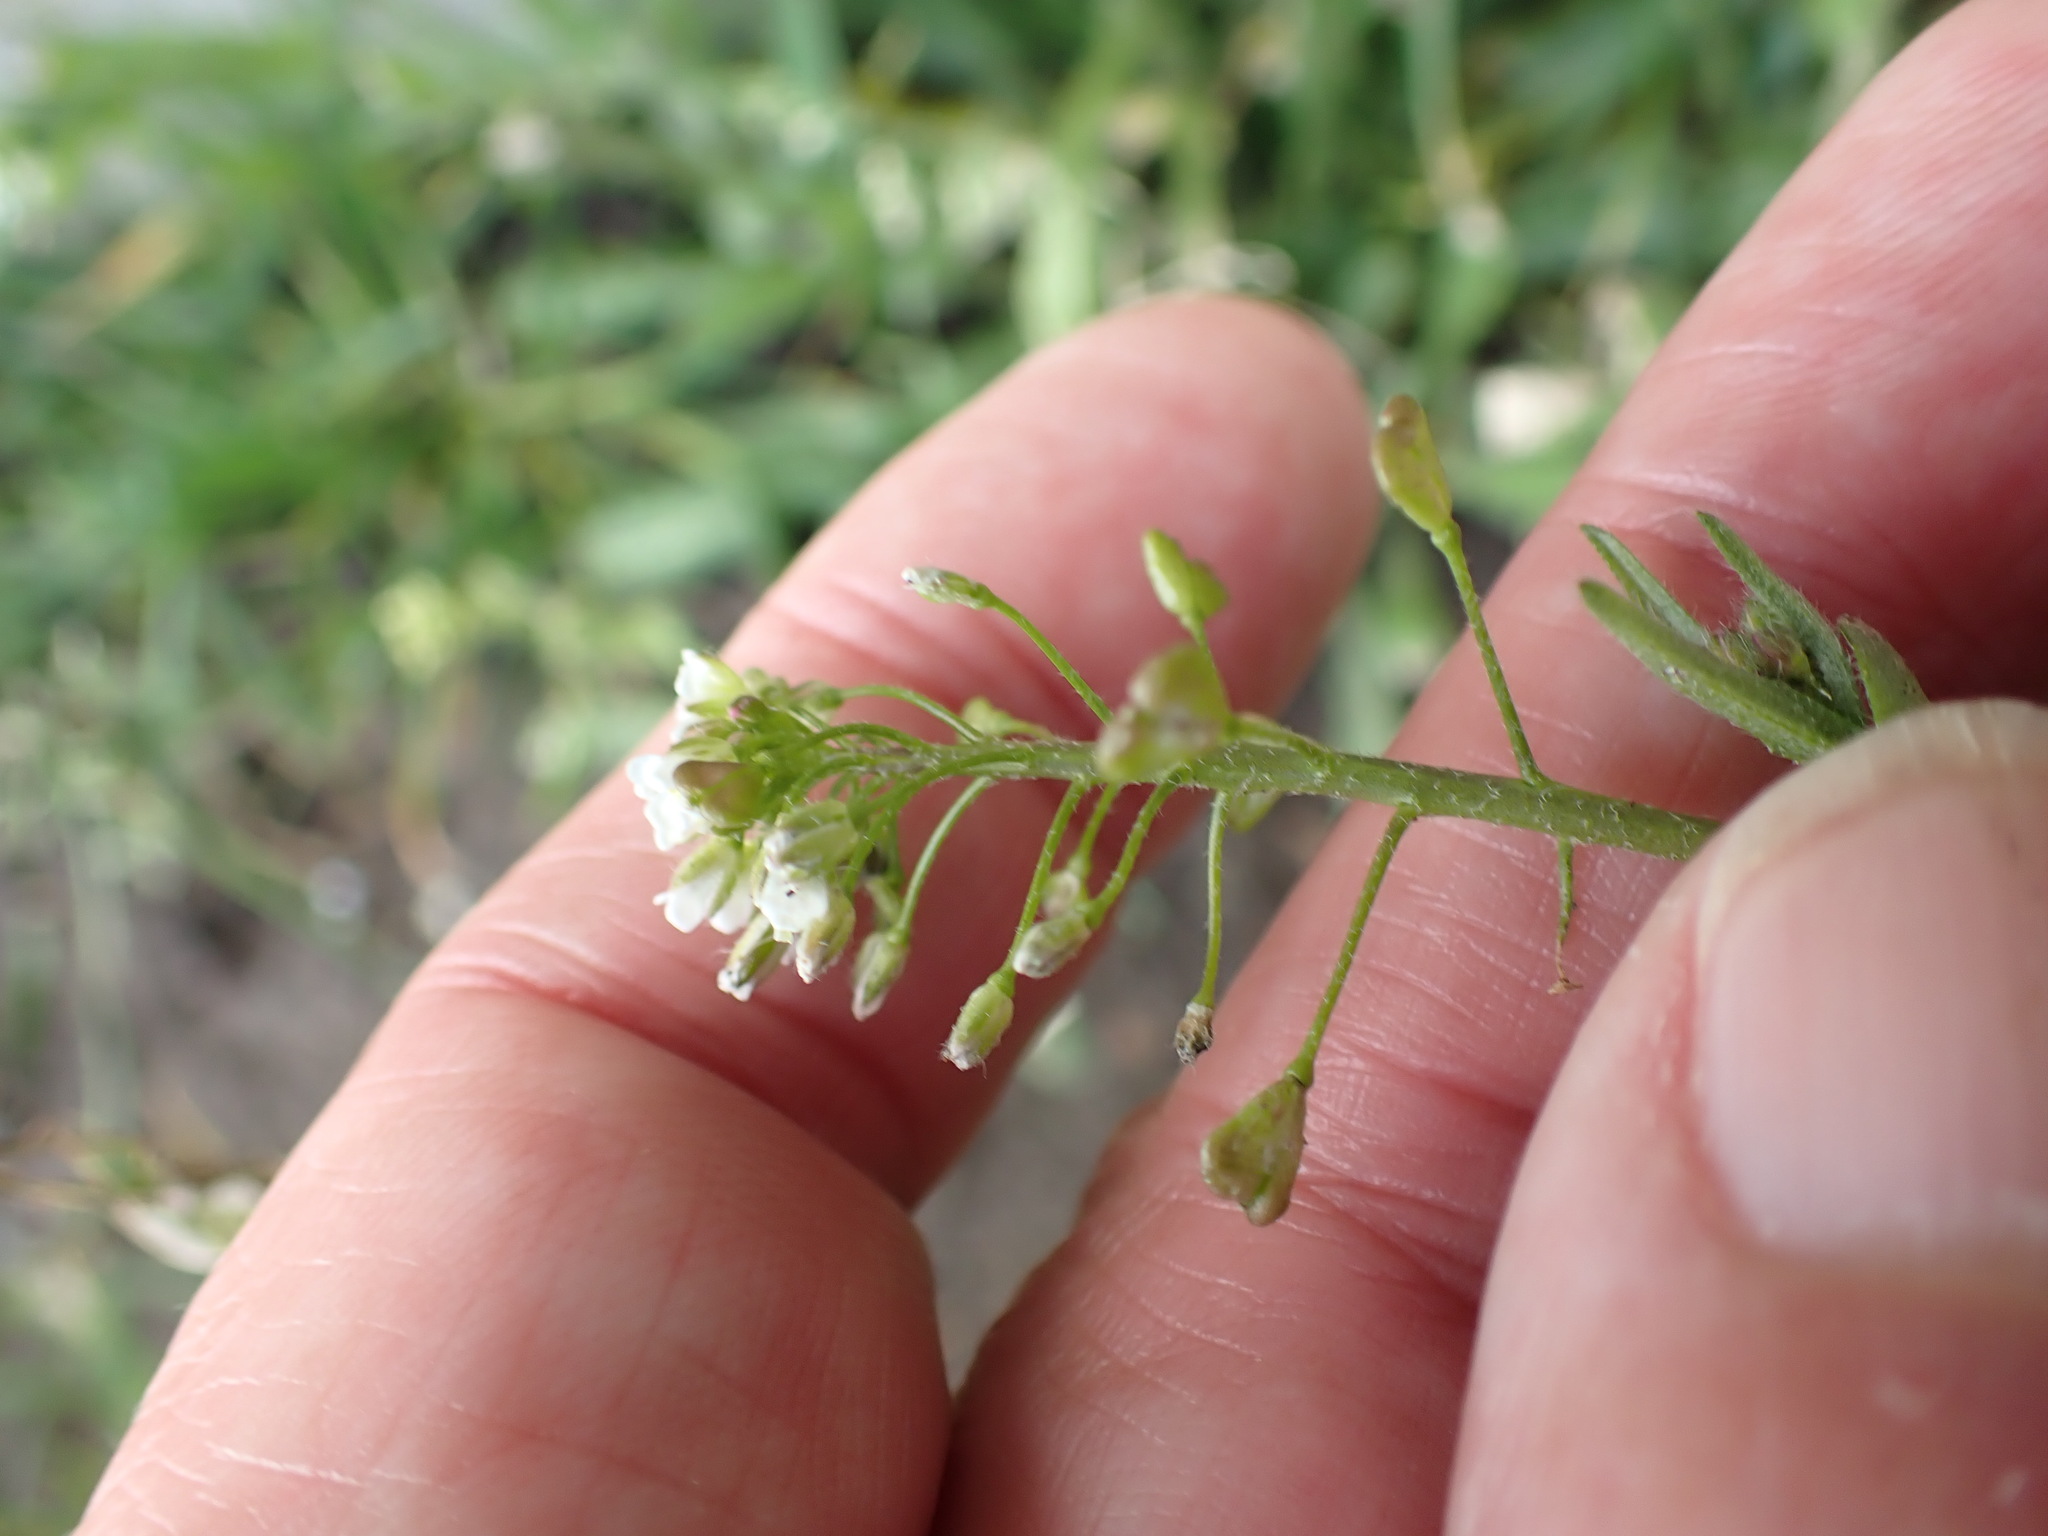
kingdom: Plantae
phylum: Tracheophyta
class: Magnoliopsida
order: Brassicales
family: Brassicaceae
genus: Capsella
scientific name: Capsella bursa-pastoris
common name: Shepherd's purse
